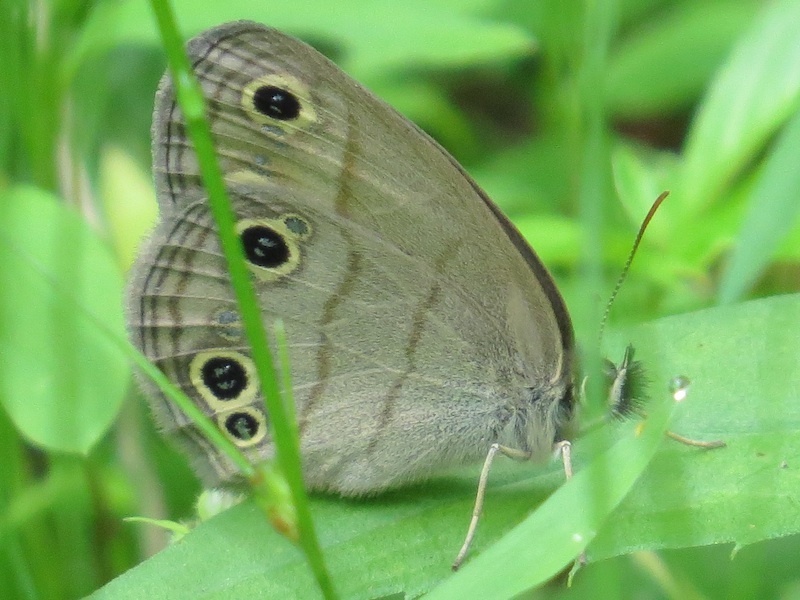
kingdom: Animalia
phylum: Arthropoda
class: Insecta
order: Lepidoptera
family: Nymphalidae
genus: Euptychia
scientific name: Euptychia cymela
